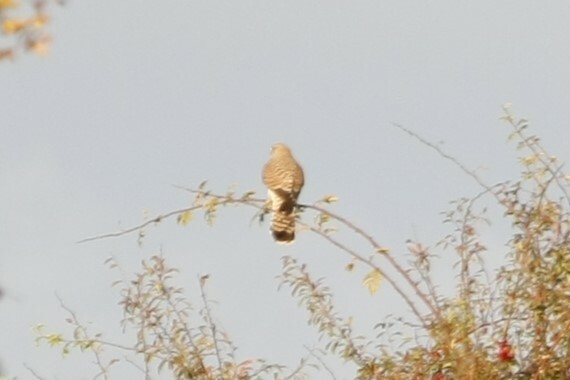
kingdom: Animalia
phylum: Chordata
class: Aves
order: Falconiformes
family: Falconidae
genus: Falco
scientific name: Falco tinnunculus
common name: Common kestrel
